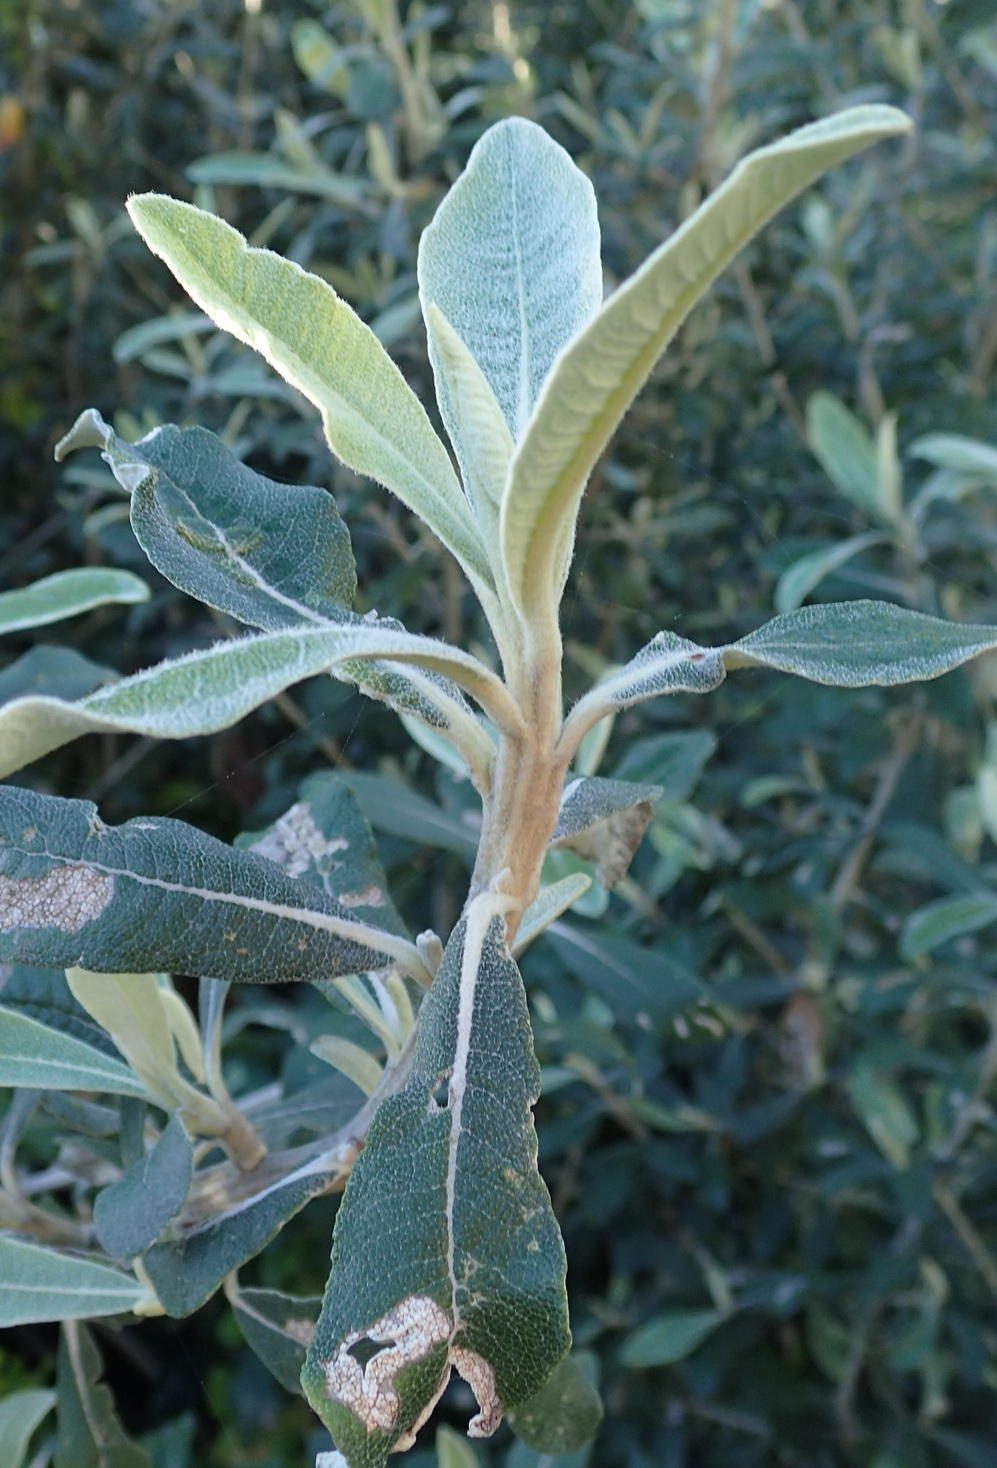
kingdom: Plantae
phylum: Tracheophyta
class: Magnoliopsida
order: Asterales
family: Asteraceae
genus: Tarchonanthus
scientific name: Tarchonanthus littoralis
